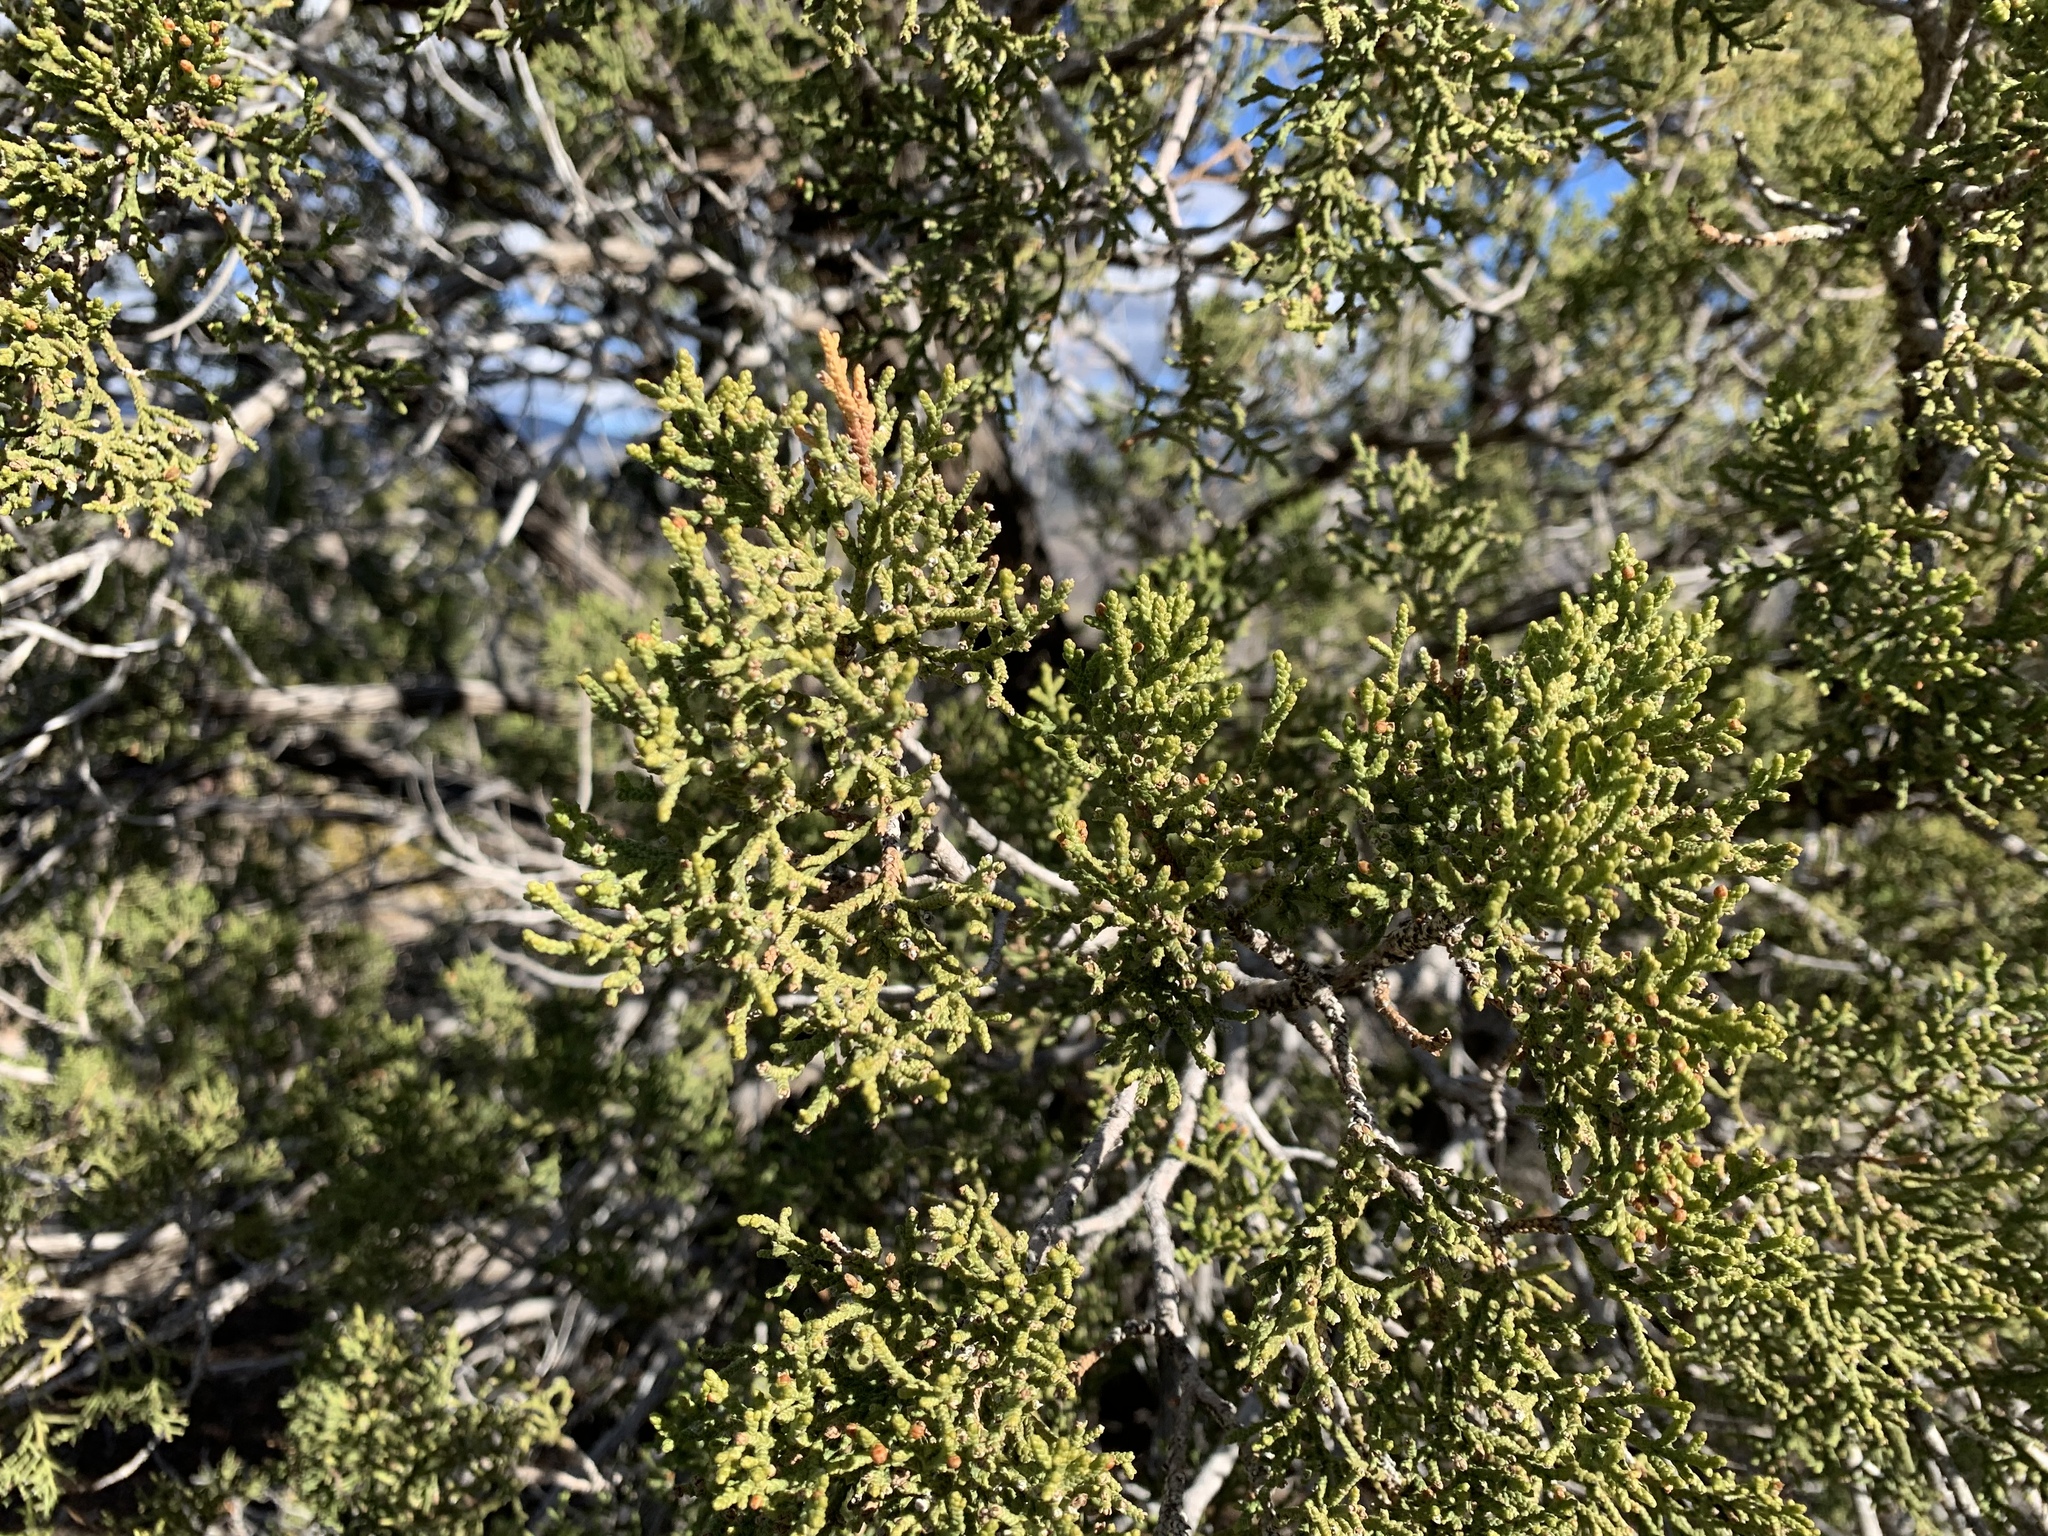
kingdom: Plantae
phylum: Tracheophyta
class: Pinopsida
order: Pinales
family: Cupressaceae
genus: Juniperus
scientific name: Juniperus monosperma
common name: One-seed juniper
